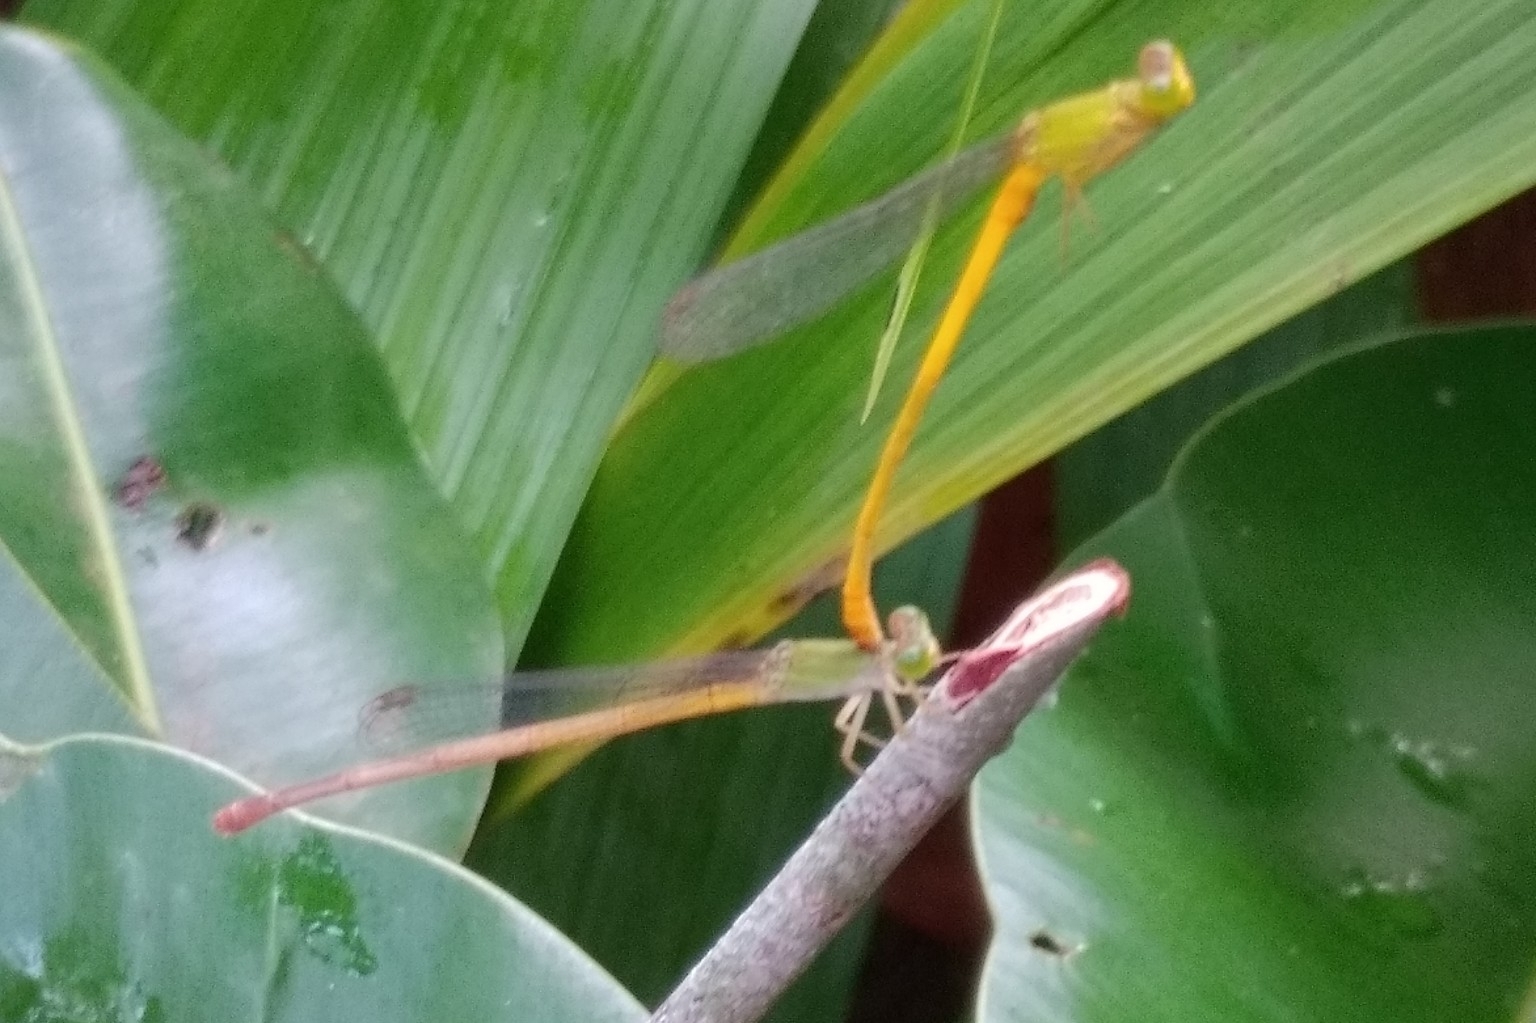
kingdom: Animalia
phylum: Arthropoda
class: Insecta
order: Odonata
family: Coenagrionidae
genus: Ceriagrion
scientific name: Ceriagrion coromandelianum
